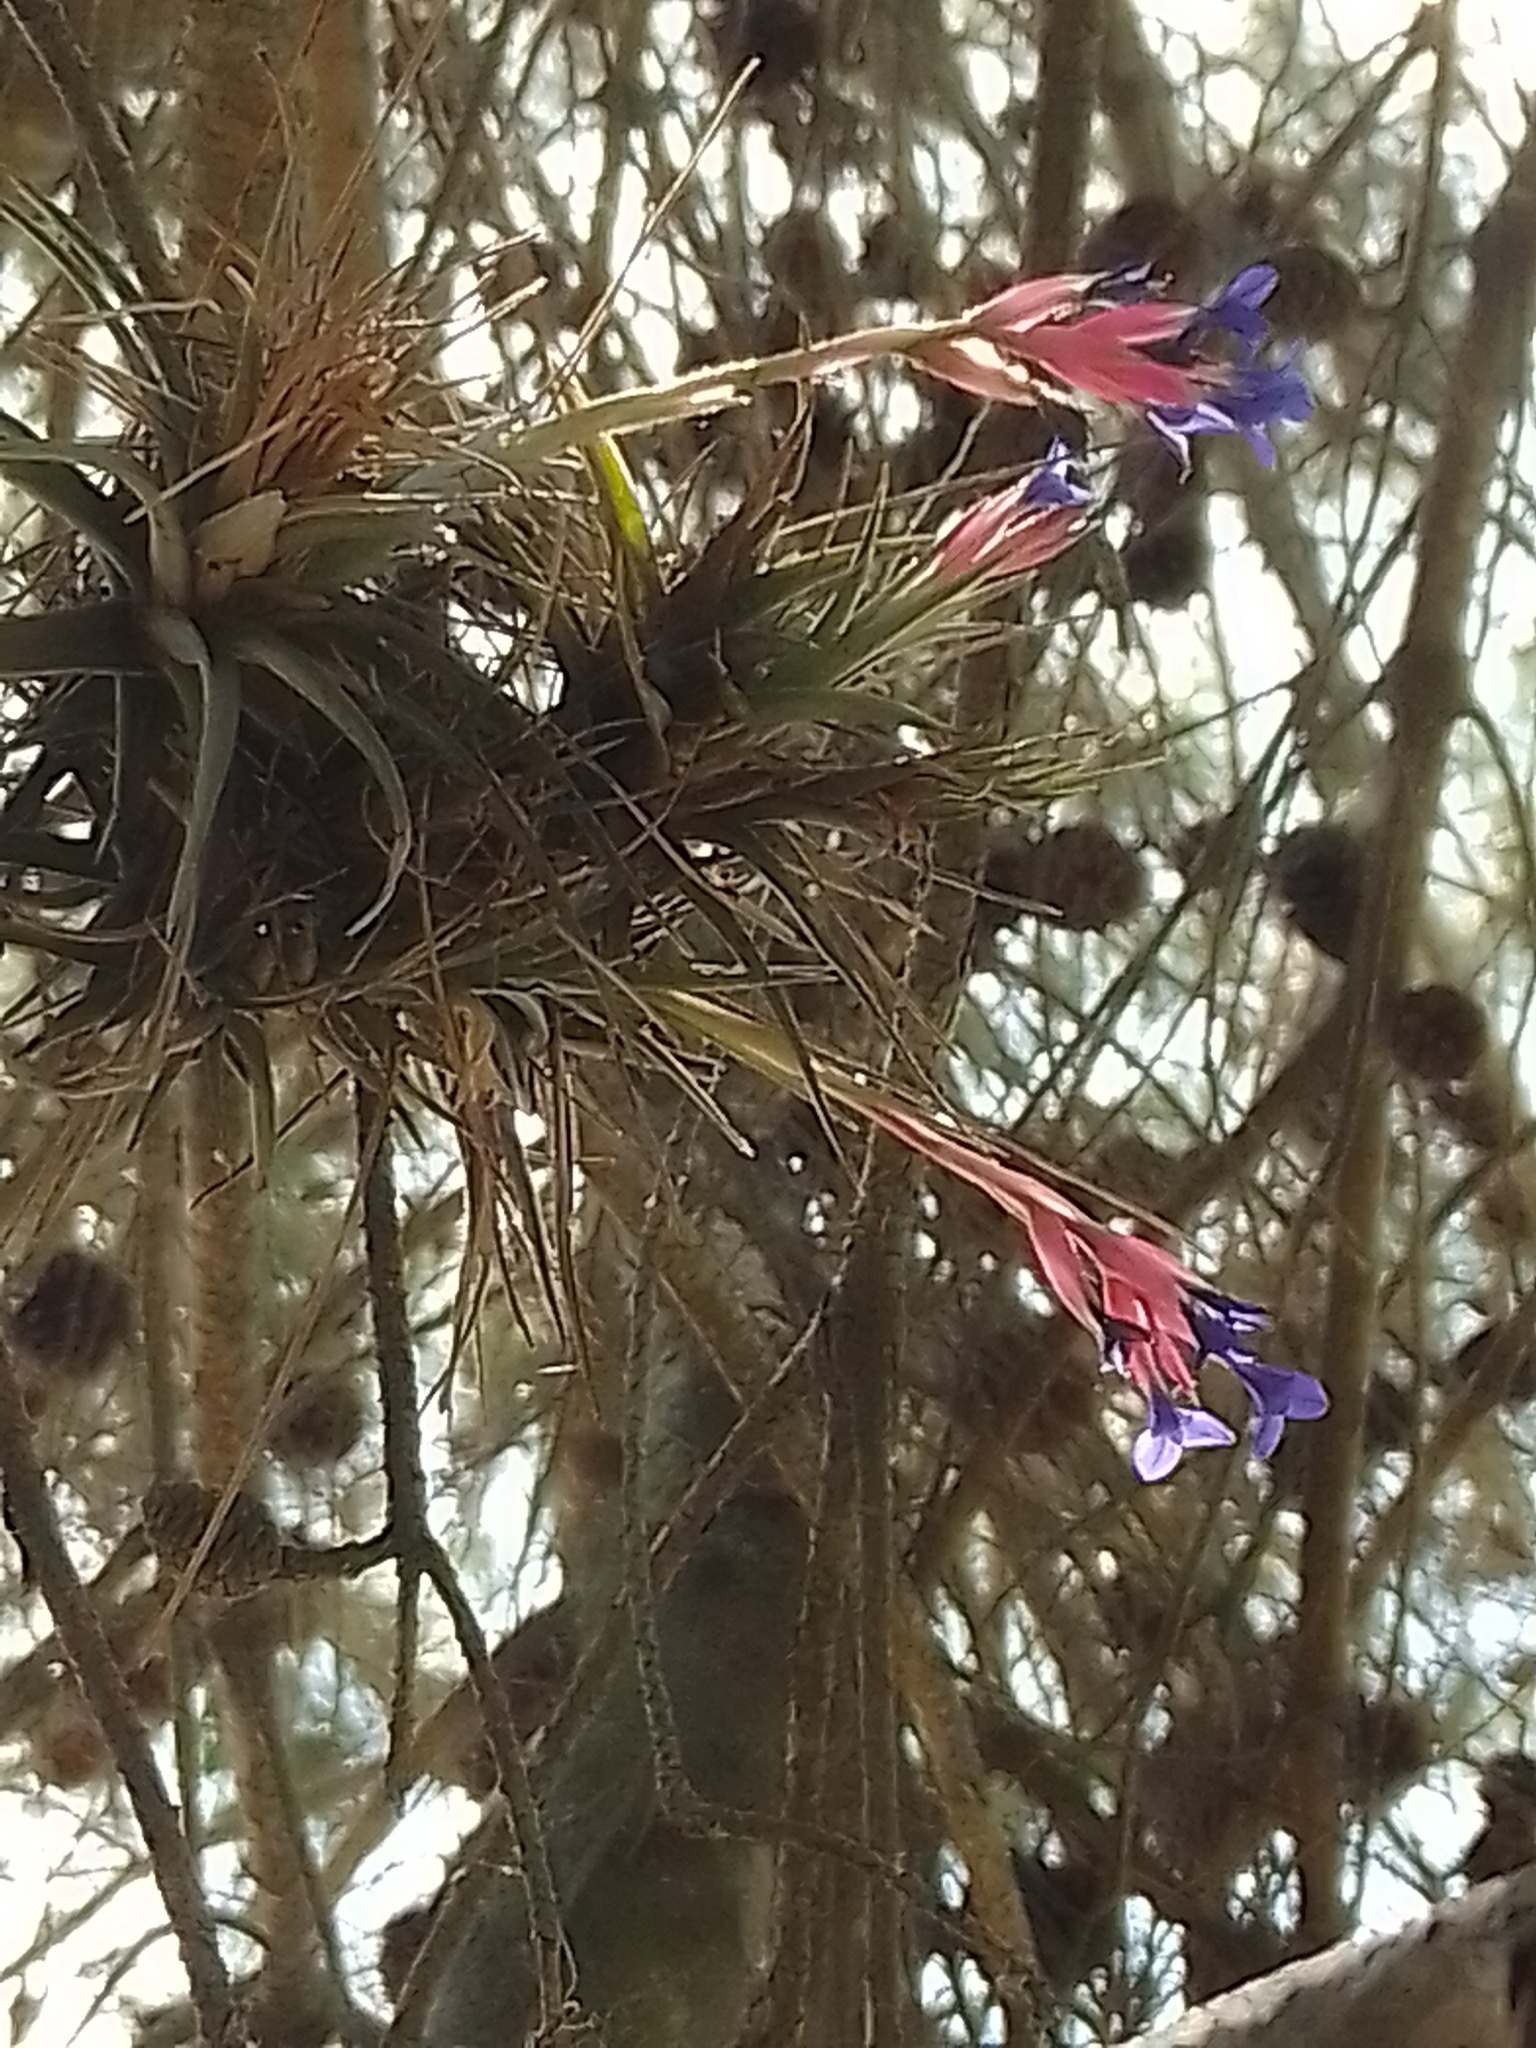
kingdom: Plantae
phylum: Tracheophyta
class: Liliopsida
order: Poales
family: Bromeliaceae
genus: Tillandsia
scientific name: Tillandsia aeranthos
